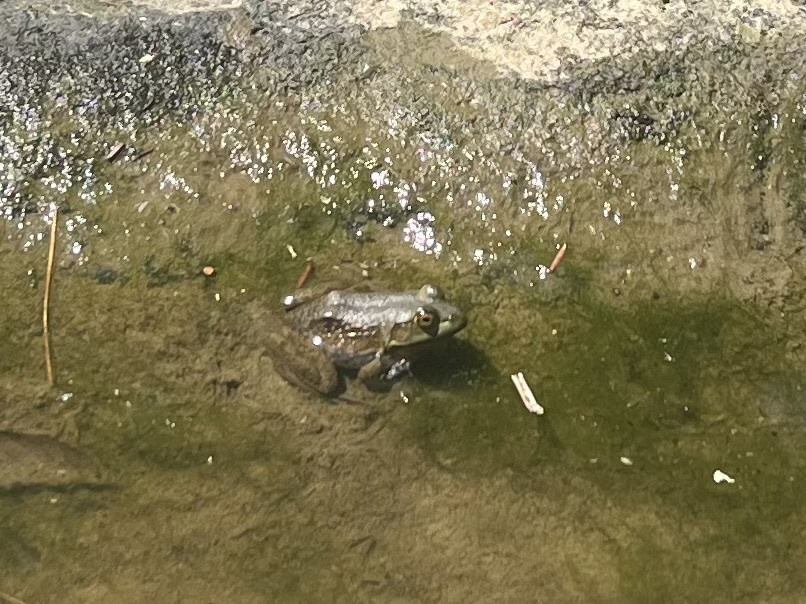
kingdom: Animalia
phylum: Chordata
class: Amphibia
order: Anura
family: Ranidae
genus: Lithobates
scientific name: Lithobates catesbeianus
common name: American bullfrog
